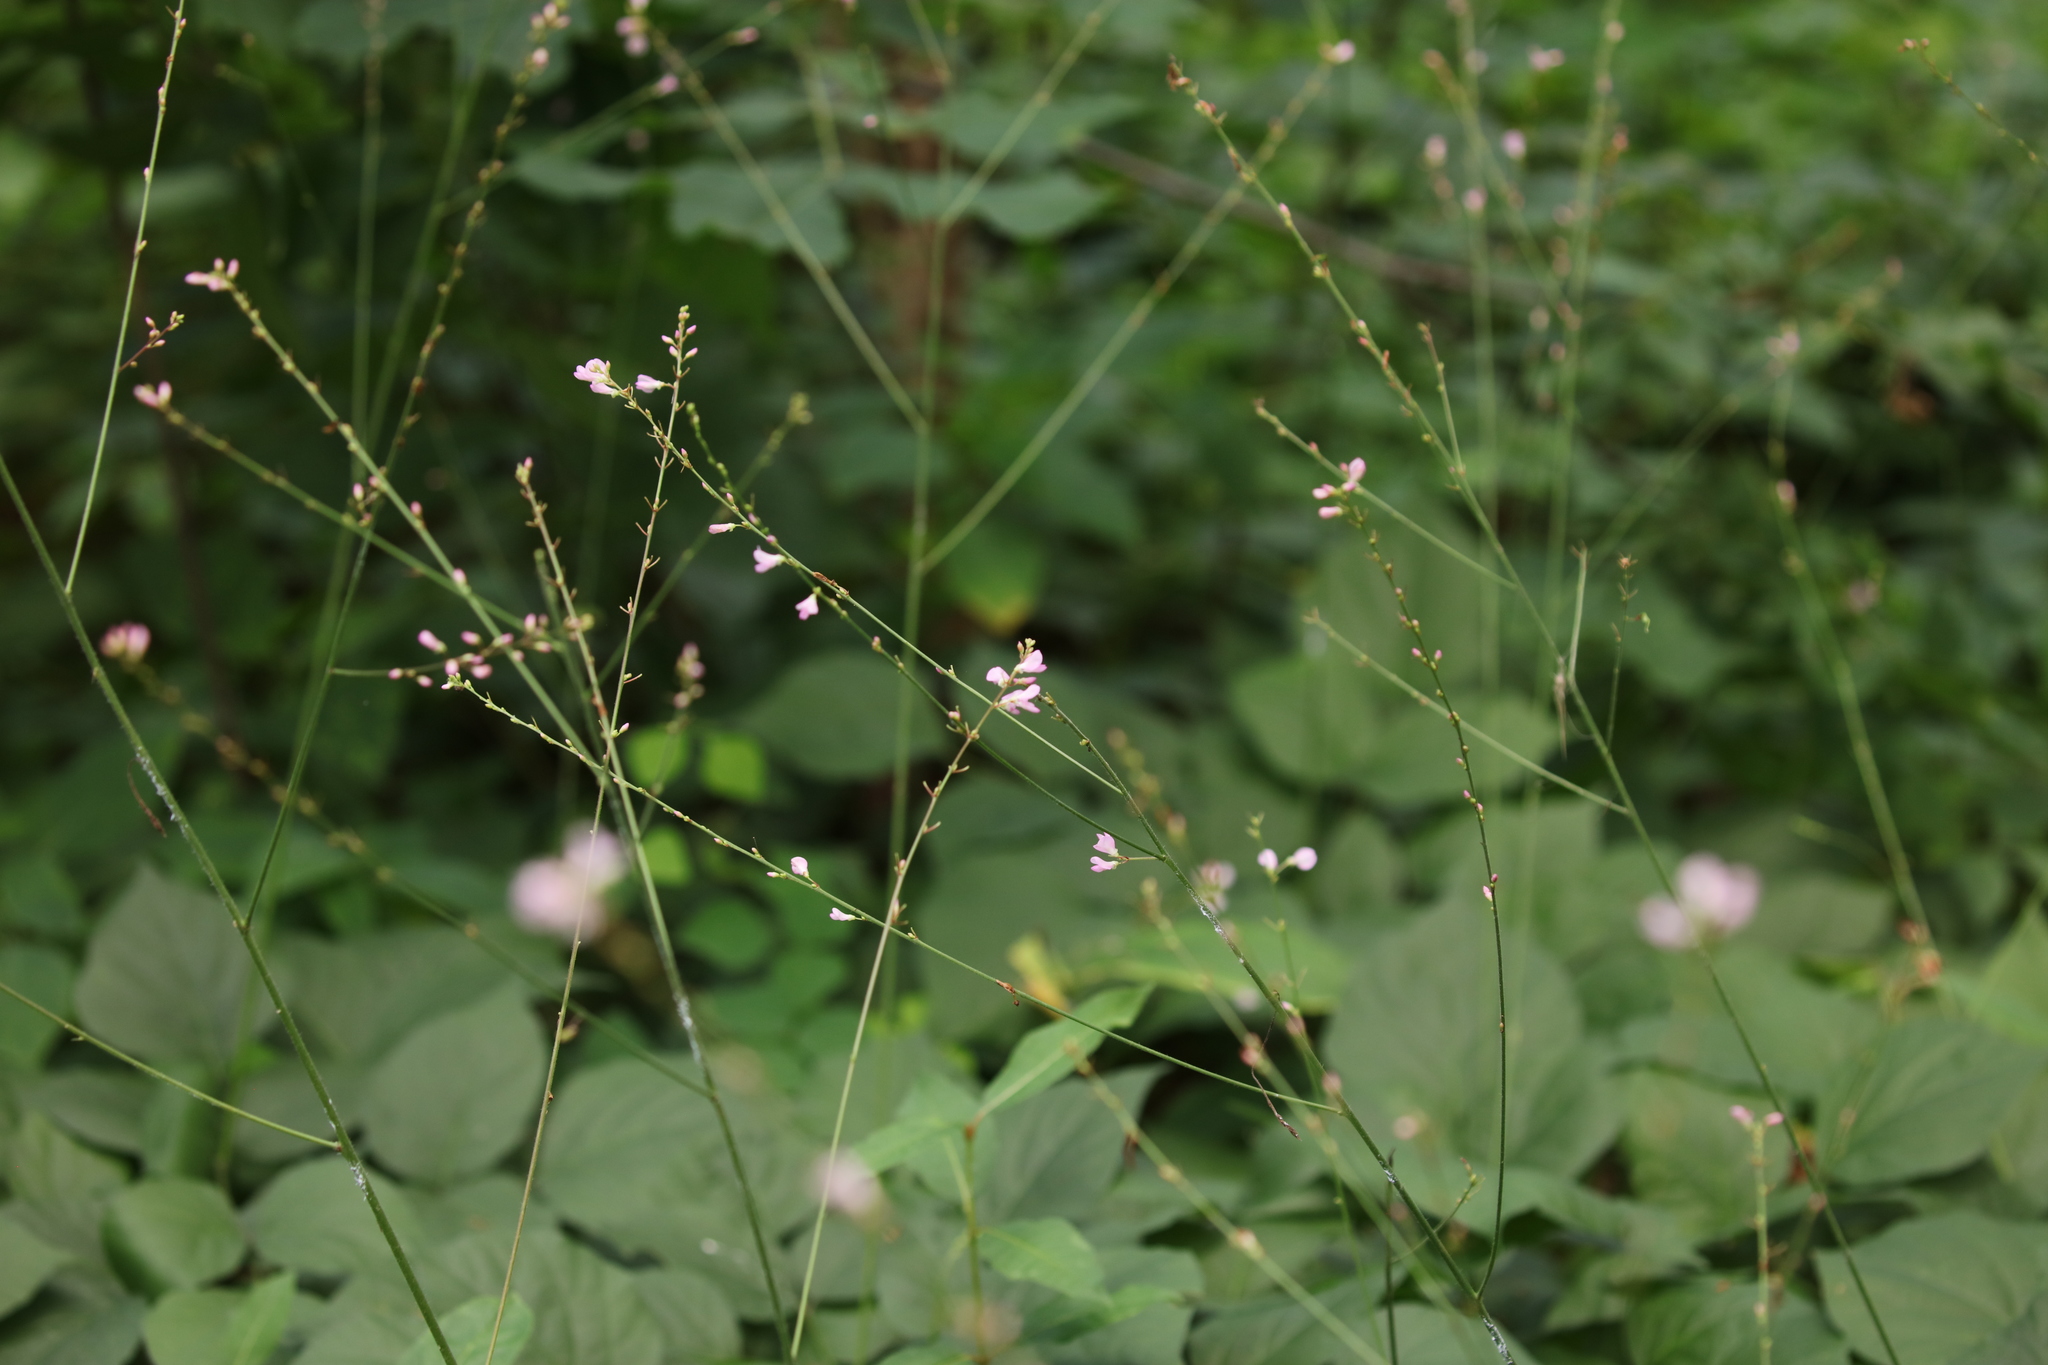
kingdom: Plantae
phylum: Tracheophyta
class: Magnoliopsida
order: Fabales
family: Fabaceae
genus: Hylodesmum
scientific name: Hylodesmum glutinosum
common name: Clustered-leaved tick-trefoil
